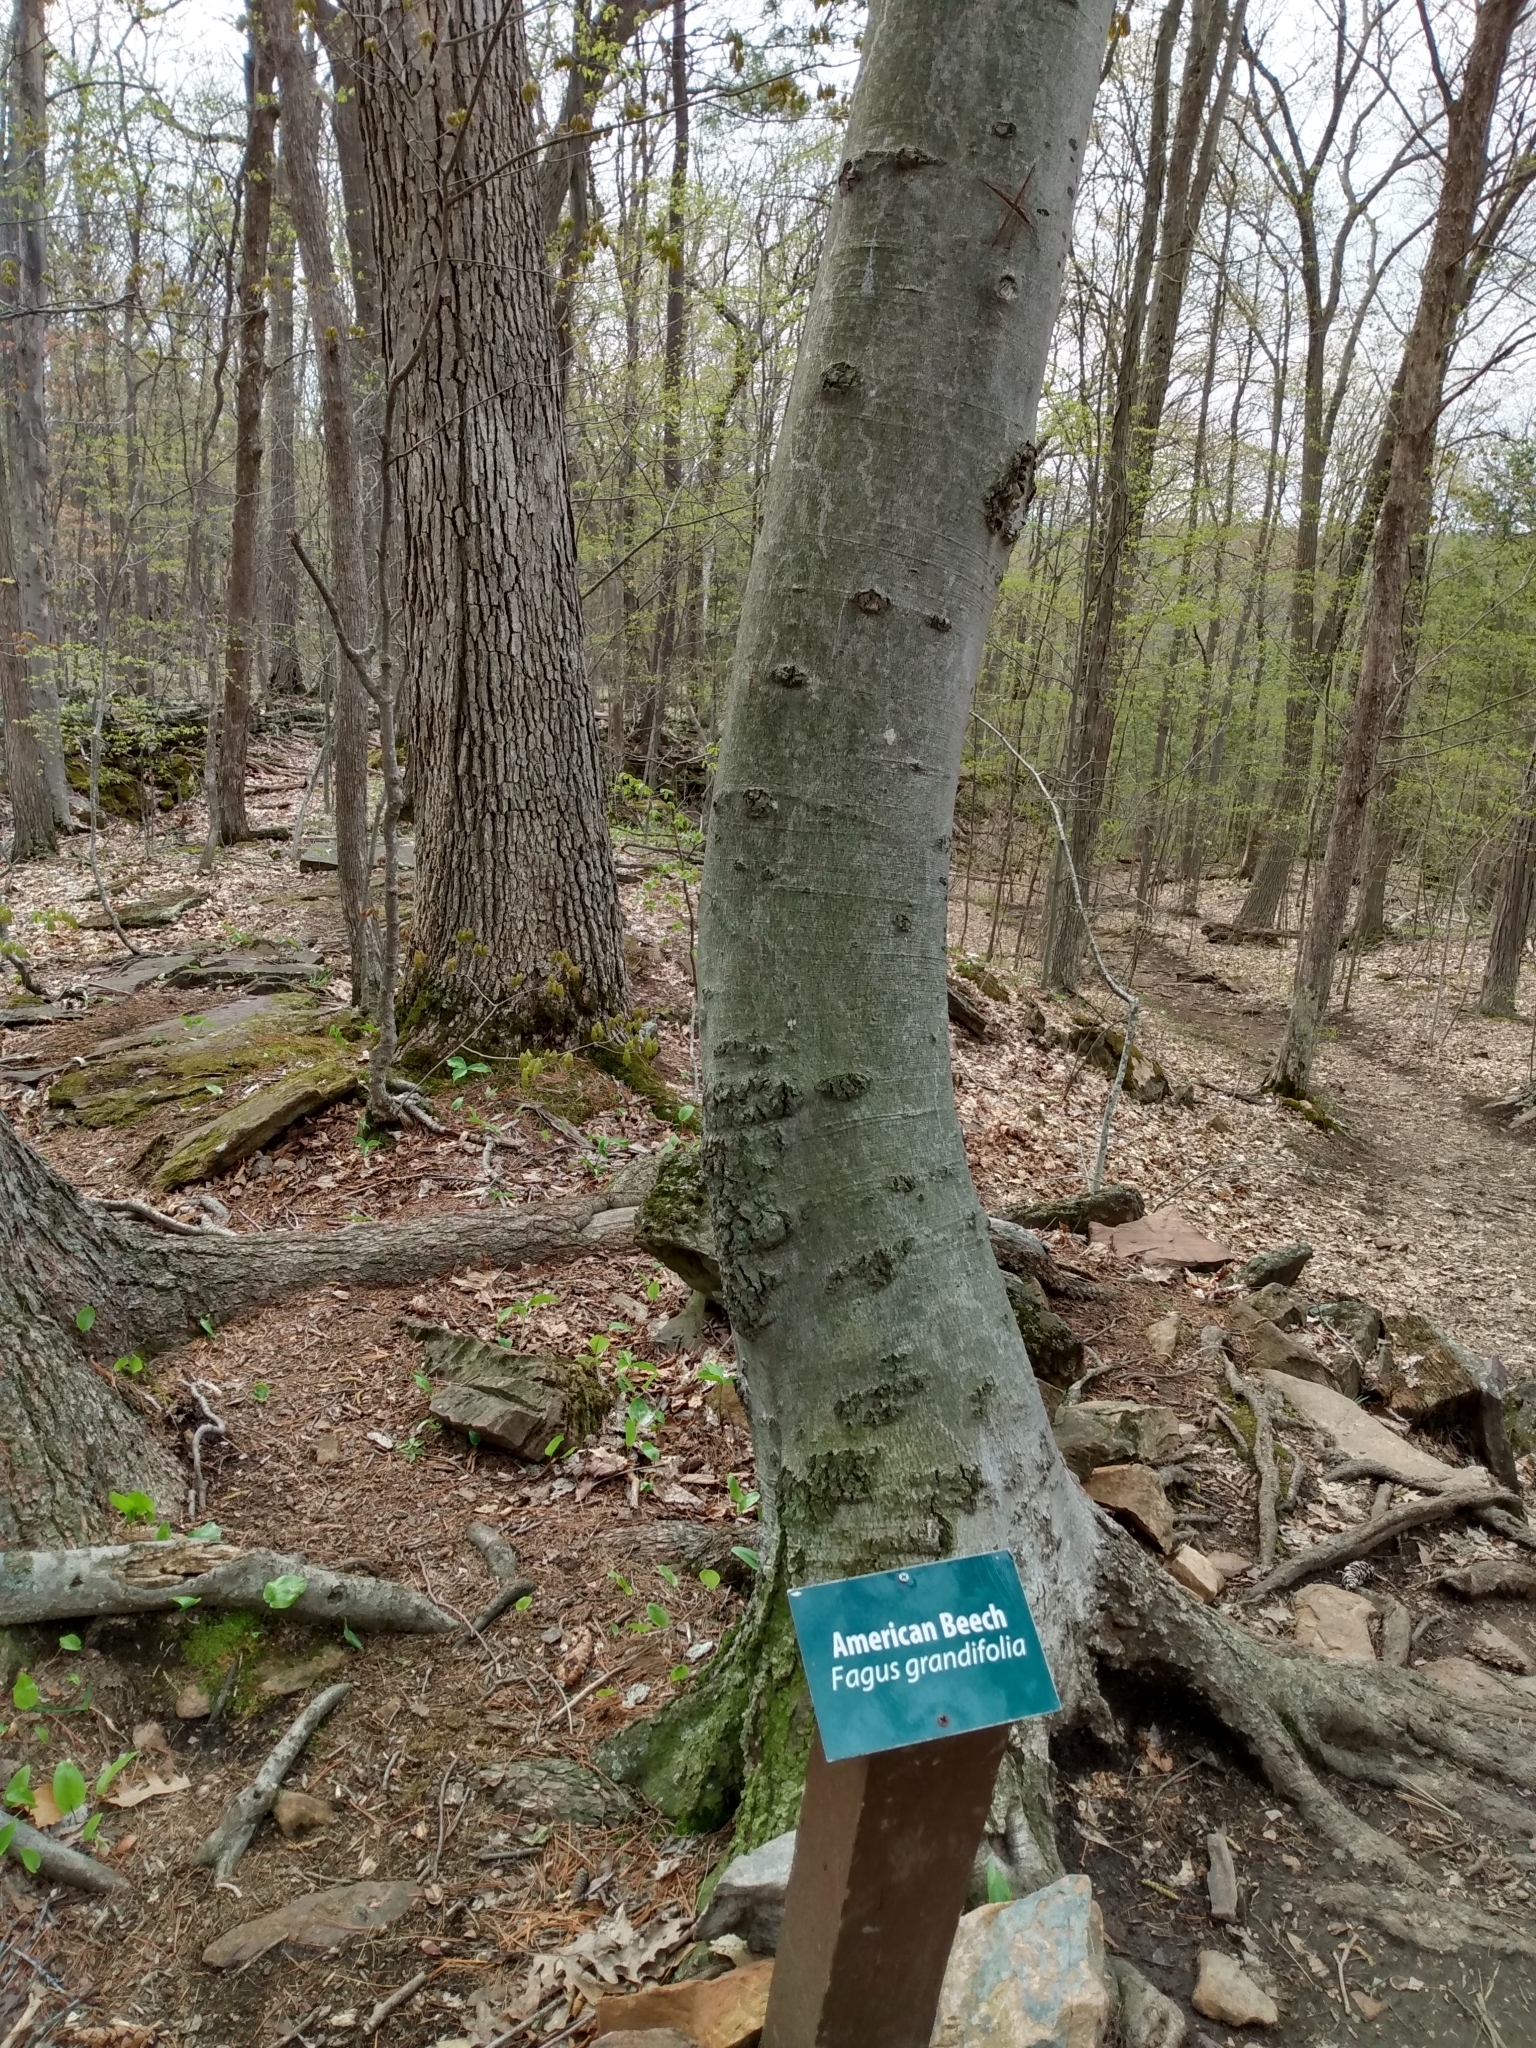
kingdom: Plantae
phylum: Tracheophyta
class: Magnoliopsida
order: Fagales
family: Fagaceae
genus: Fagus
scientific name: Fagus grandifolia
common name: American beech
